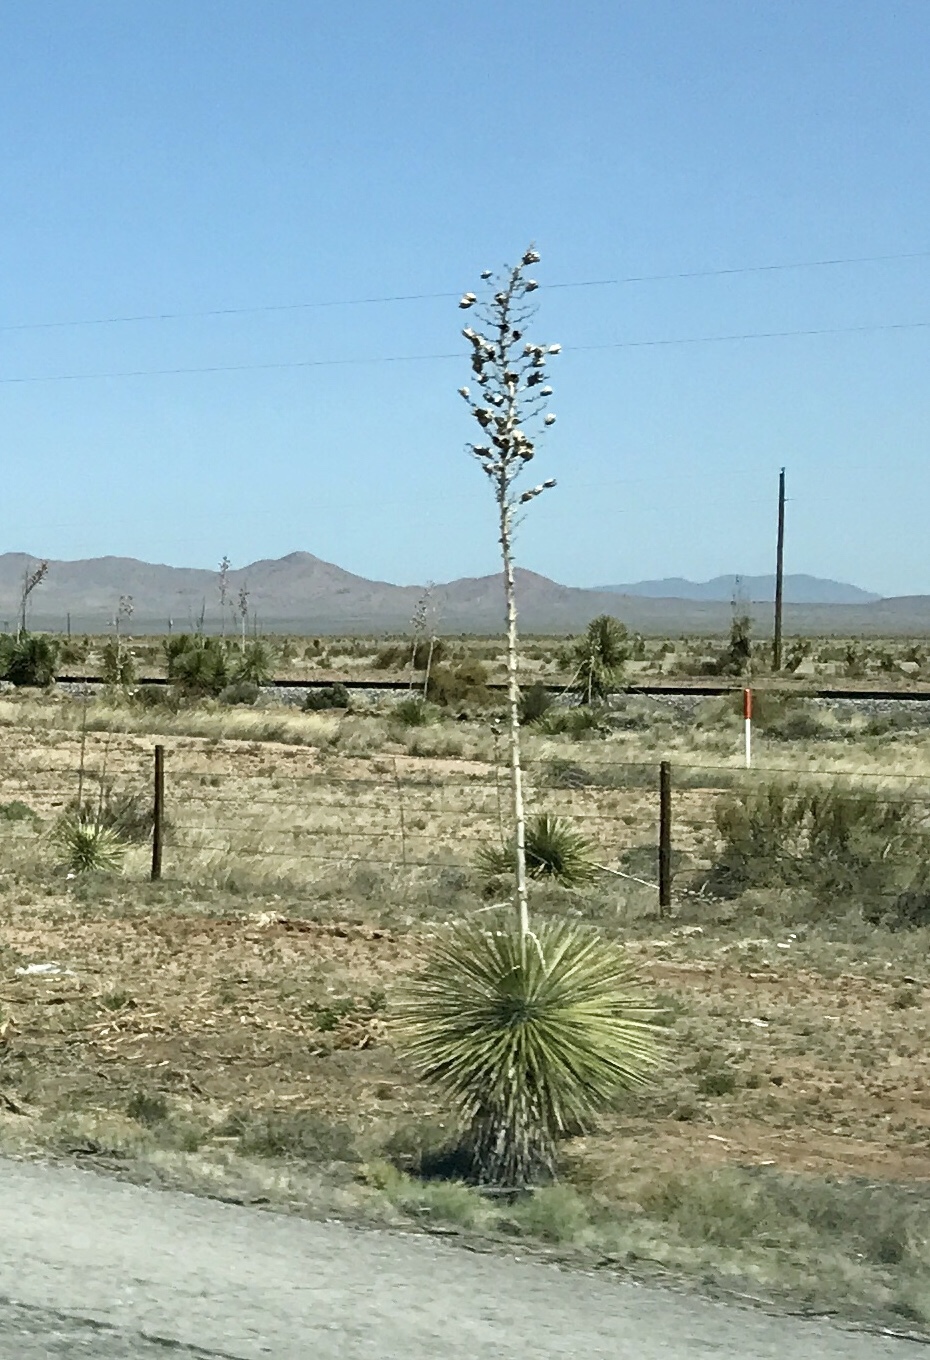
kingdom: Plantae
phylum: Tracheophyta
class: Liliopsida
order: Asparagales
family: Asparagaceae
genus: Yucca
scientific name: Yucca elata
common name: Palmella
